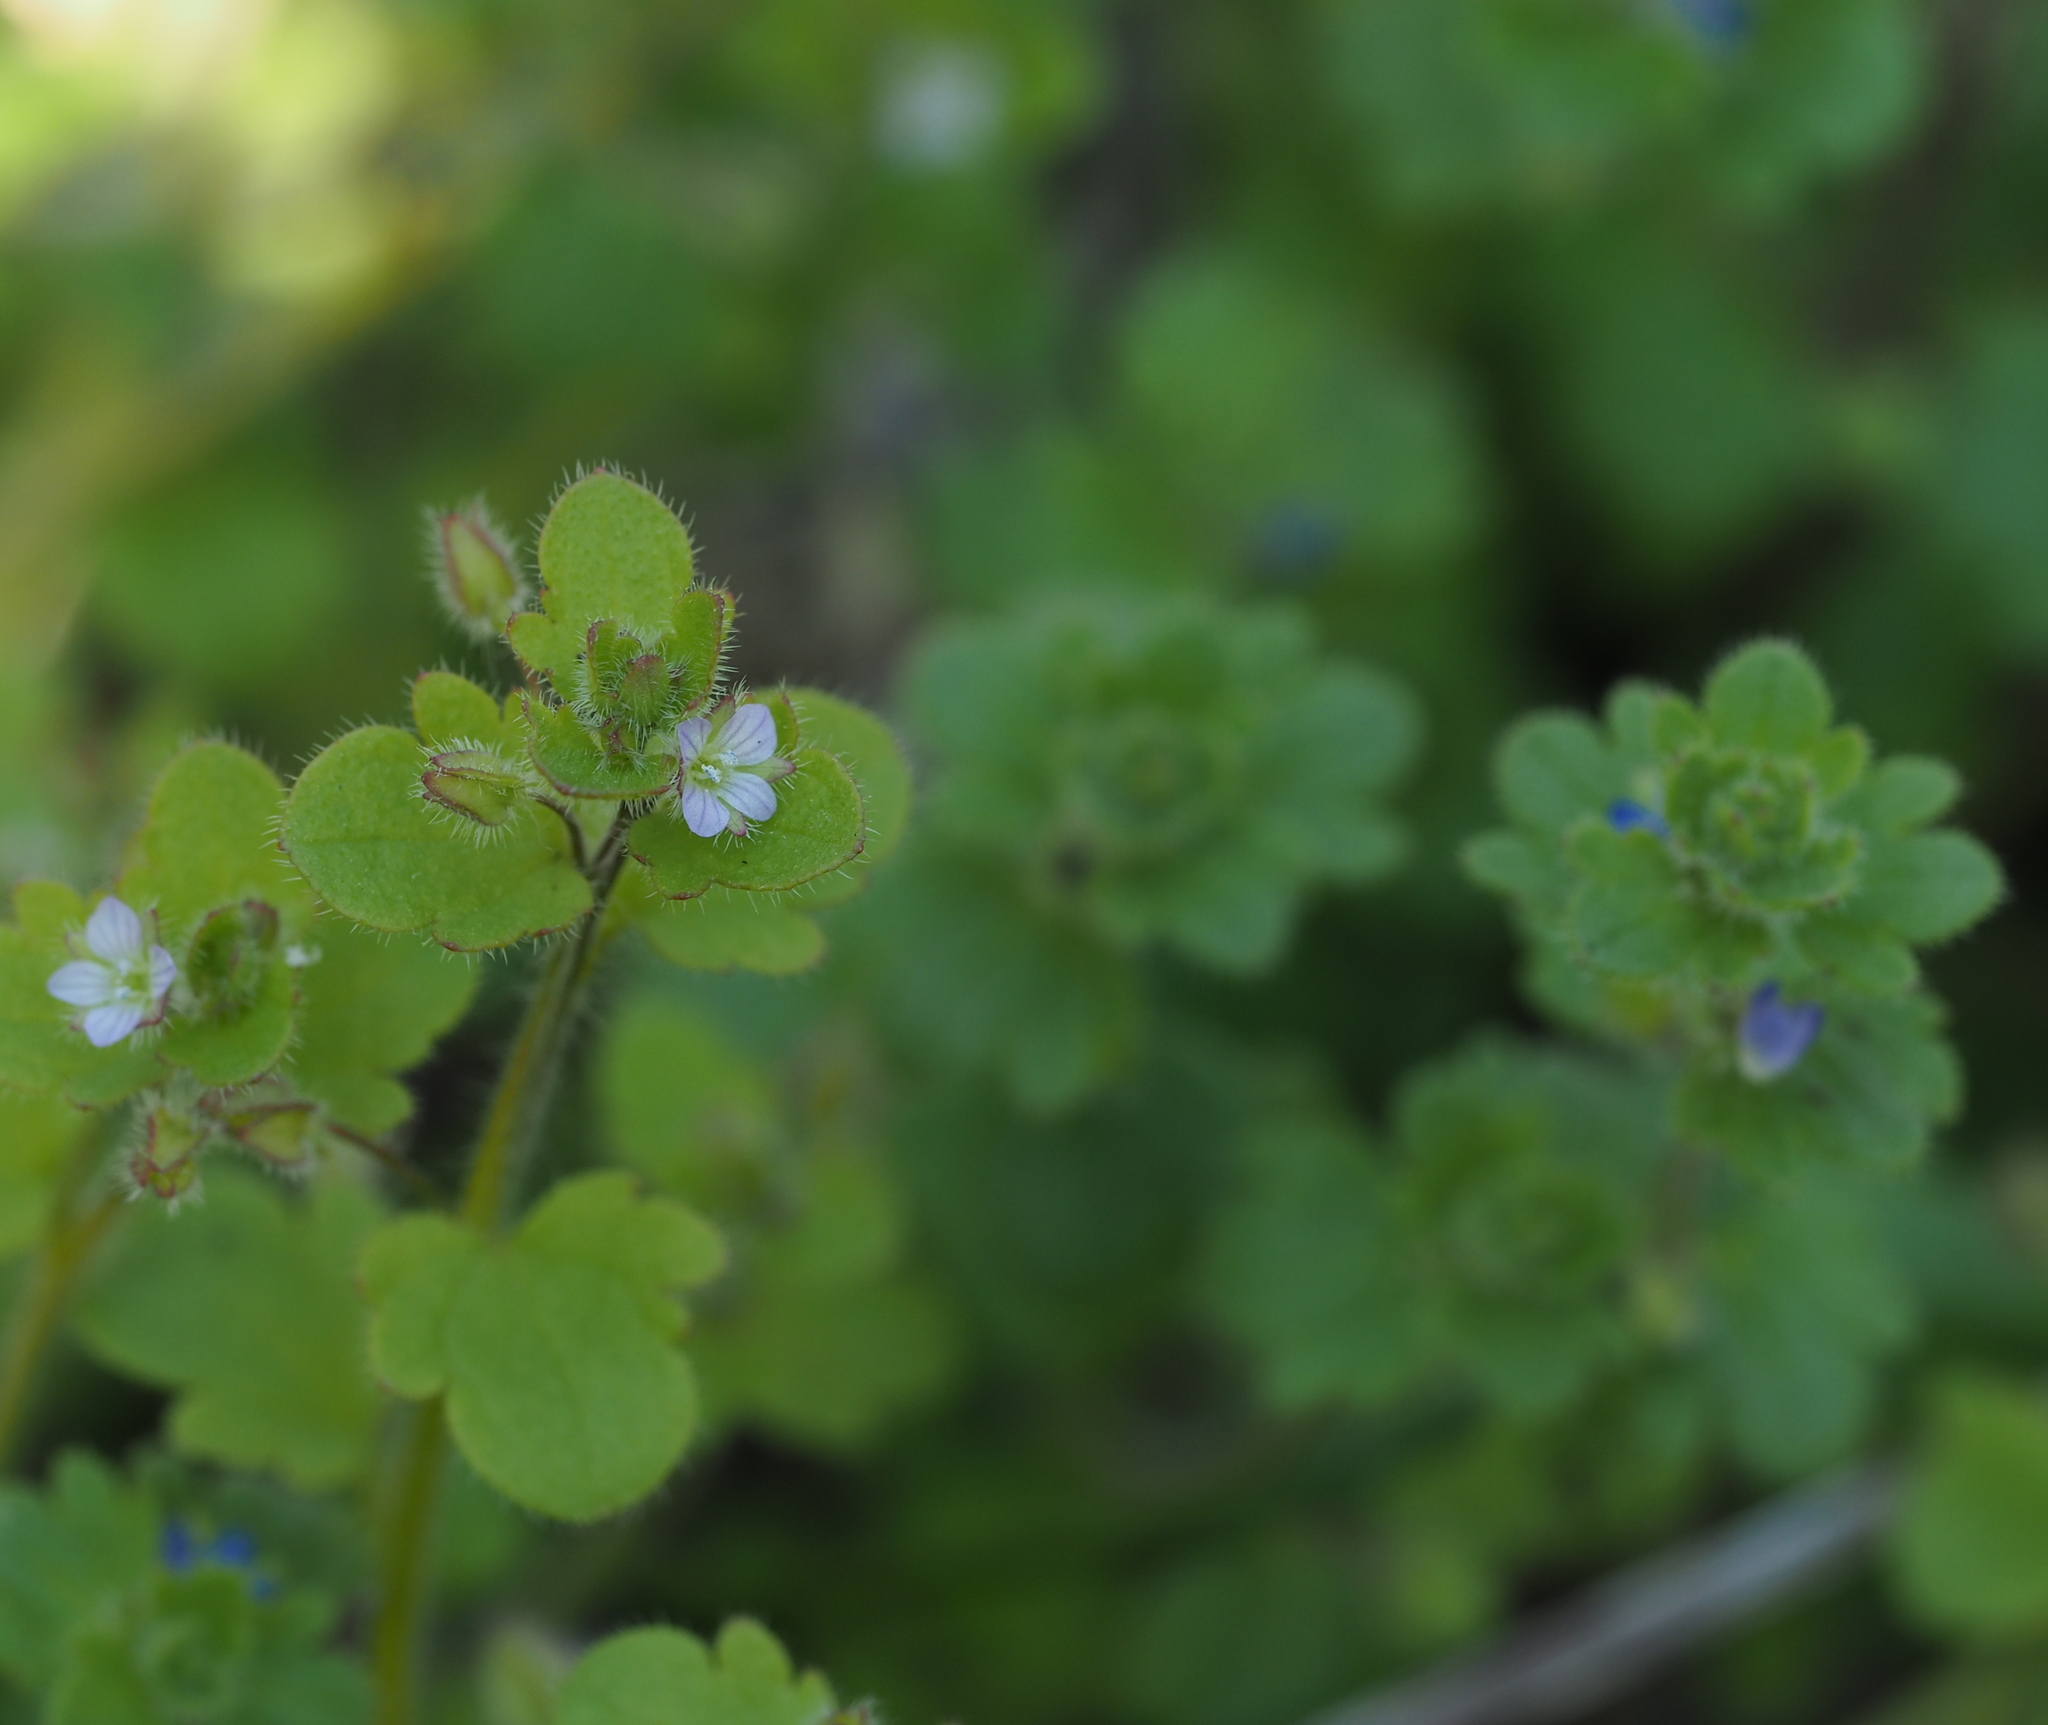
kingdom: Plantae
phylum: Tracheophyta
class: Magnoliopsida
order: Lamiales
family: Plantaginaceae
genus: Veronica
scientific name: Veronica sublobata
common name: False ivy-leaved speedwell
